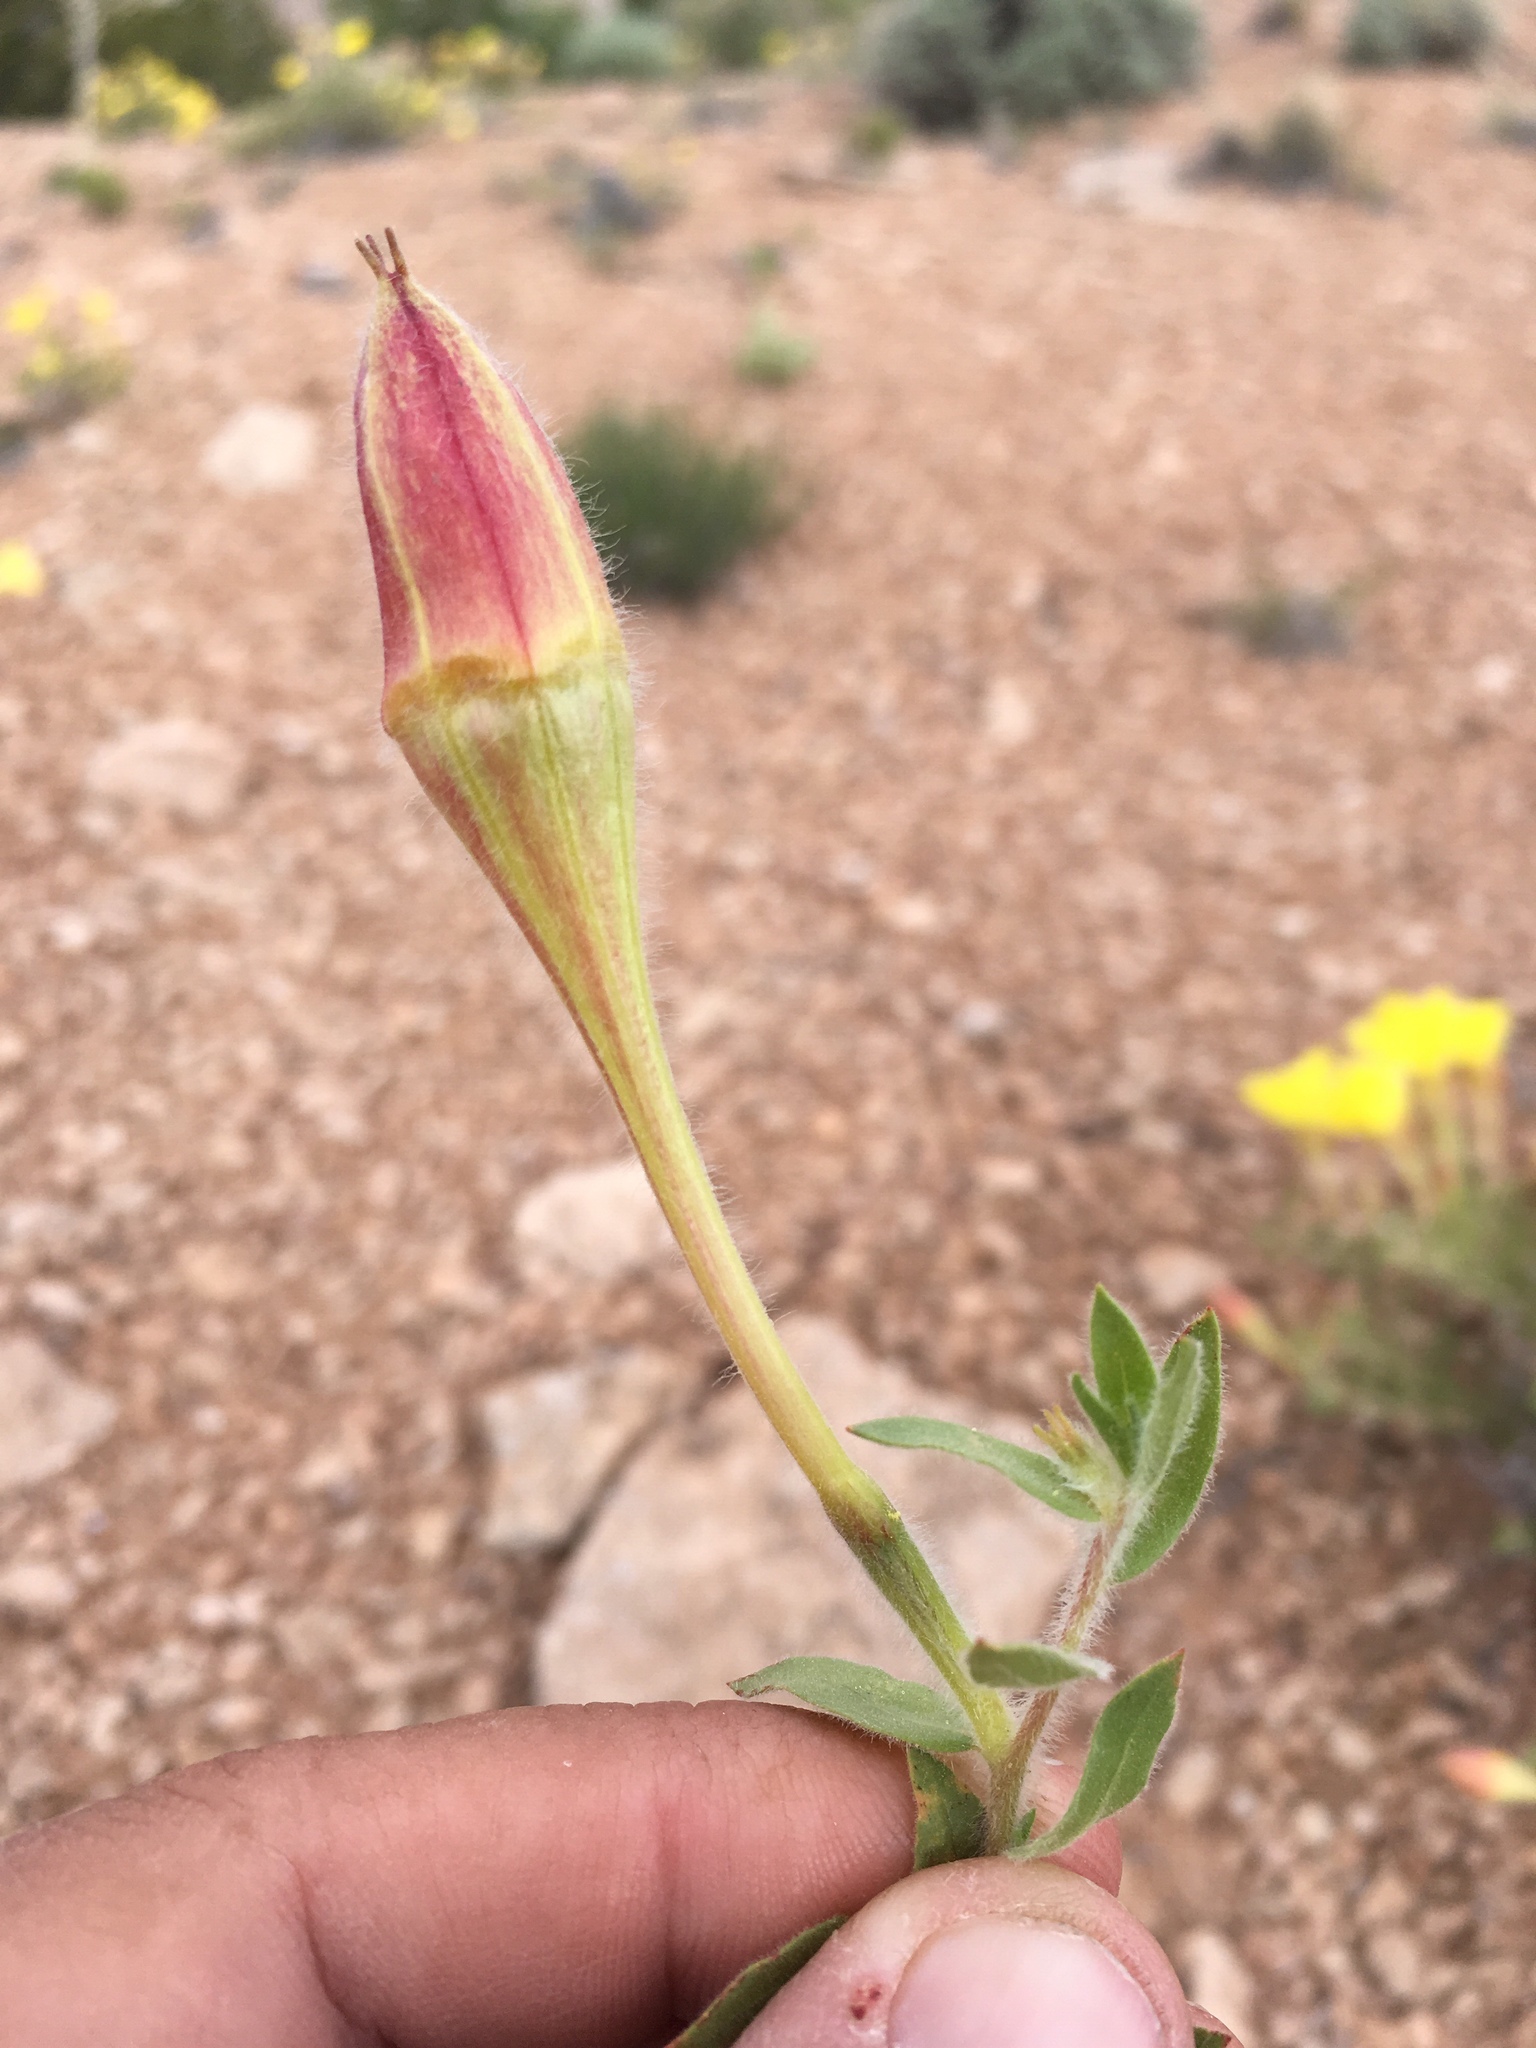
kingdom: Plantae
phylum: Tracheophyta
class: Magnoliopsida
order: Myrtales
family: Onagraceae
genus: Oenothera
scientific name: Oenothera hartwegii
